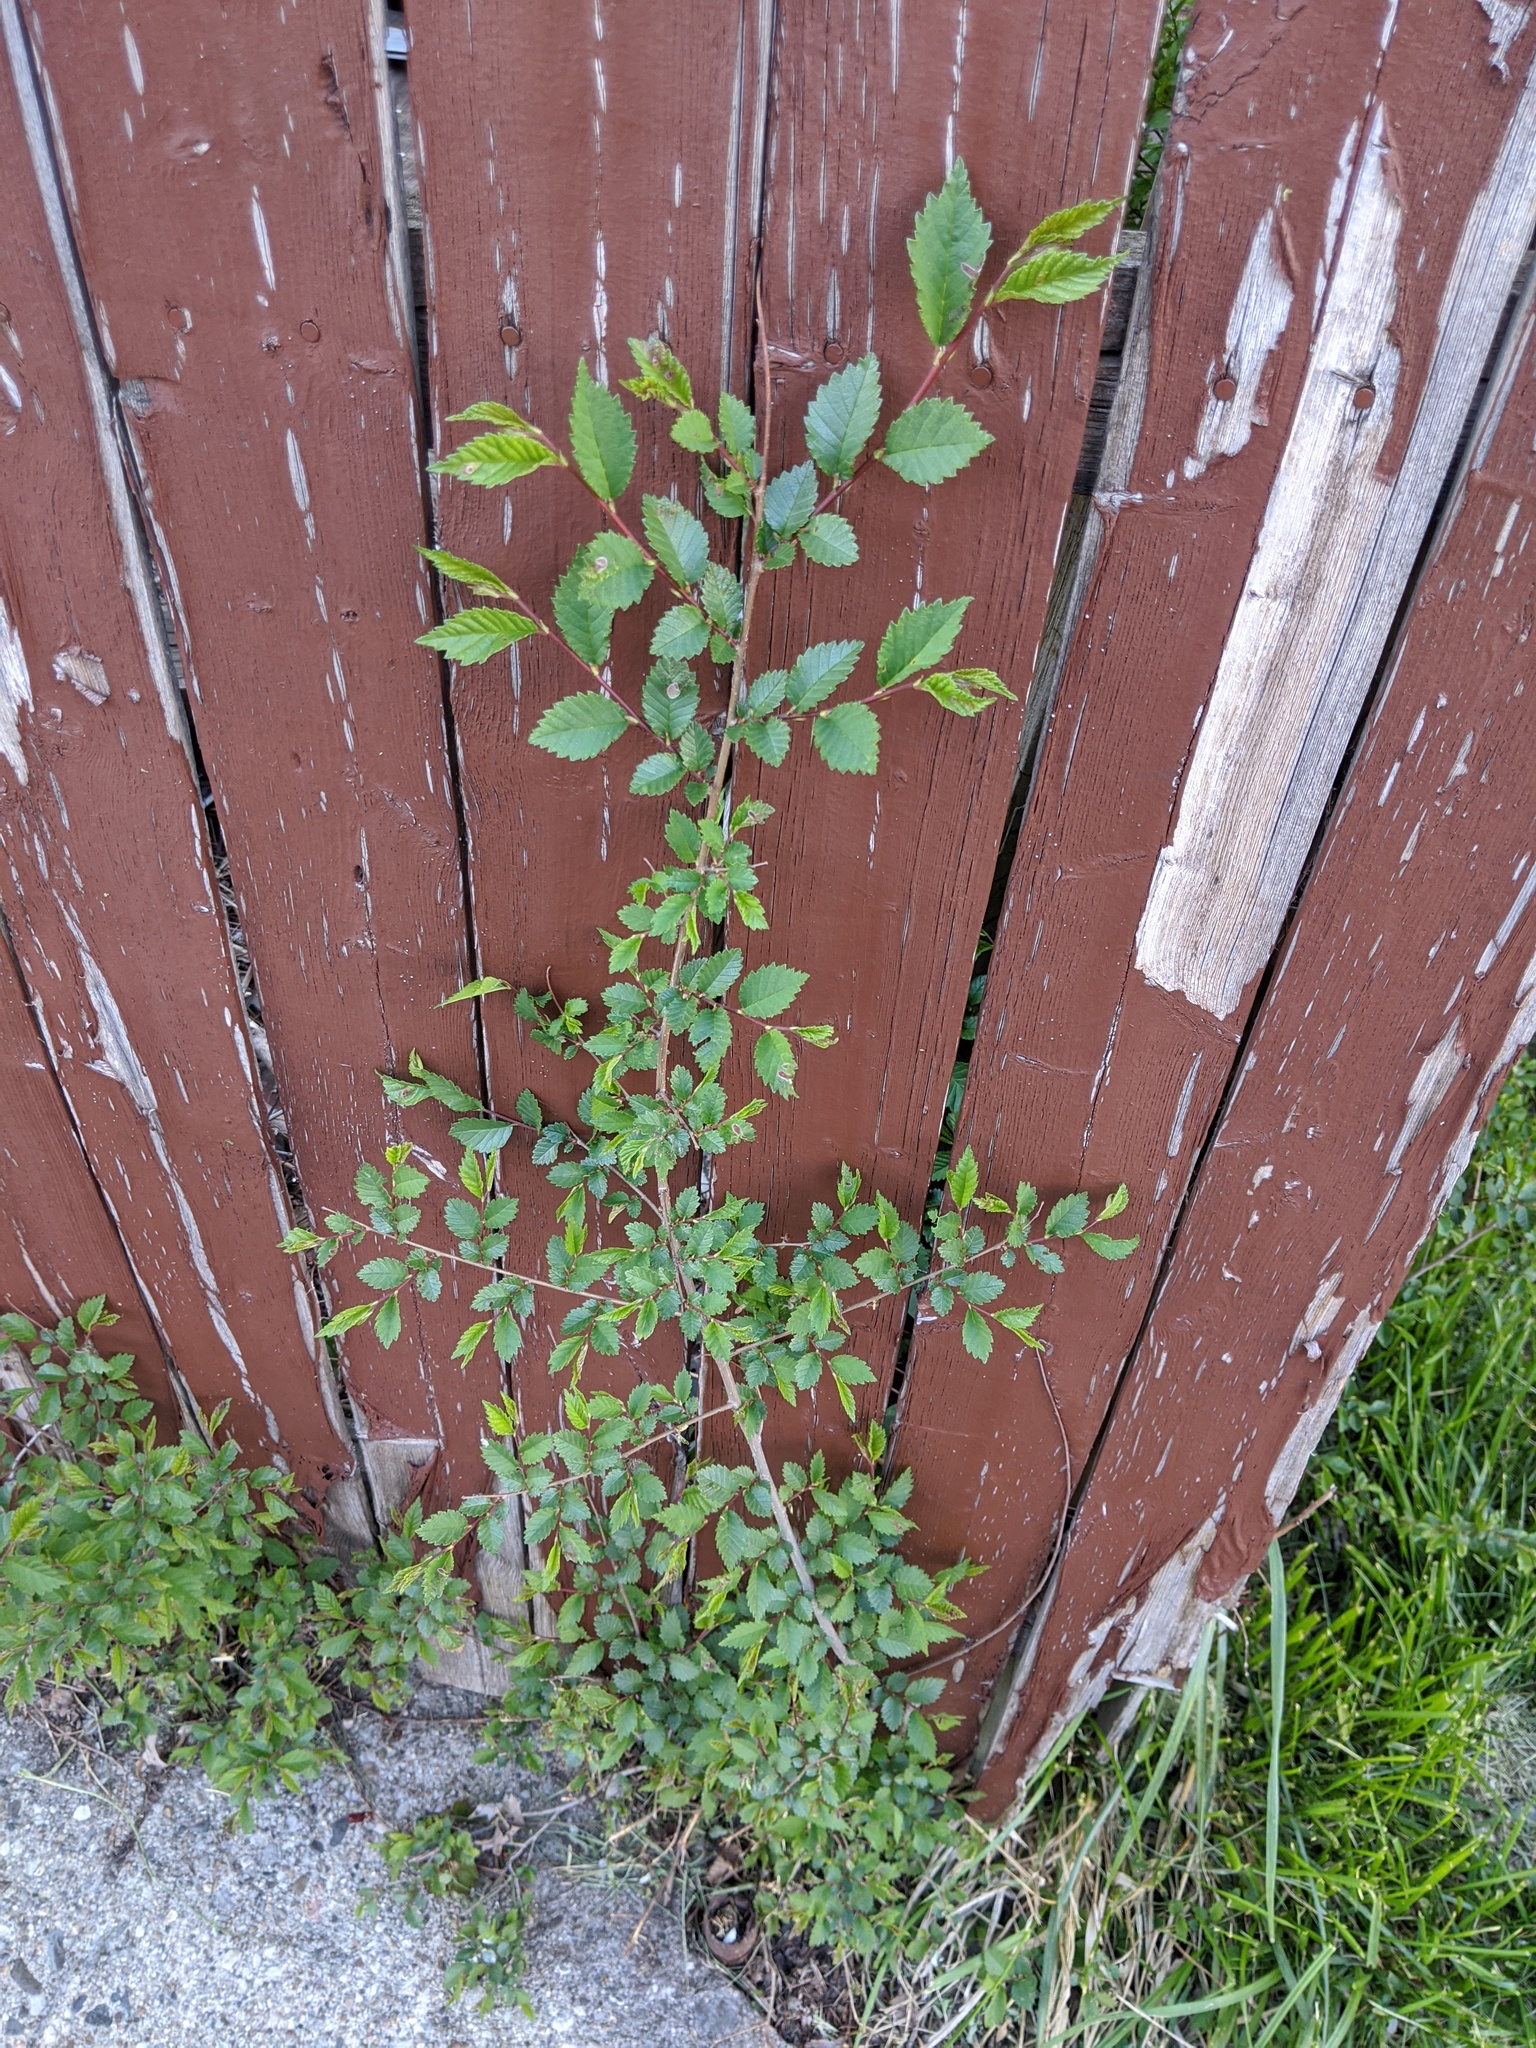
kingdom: Plantae
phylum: Tracheophyta
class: Magnoliopsida
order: Rosales
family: Ulmaceae
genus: Ulmus
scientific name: Ulmus pumila
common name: Siberian elm
